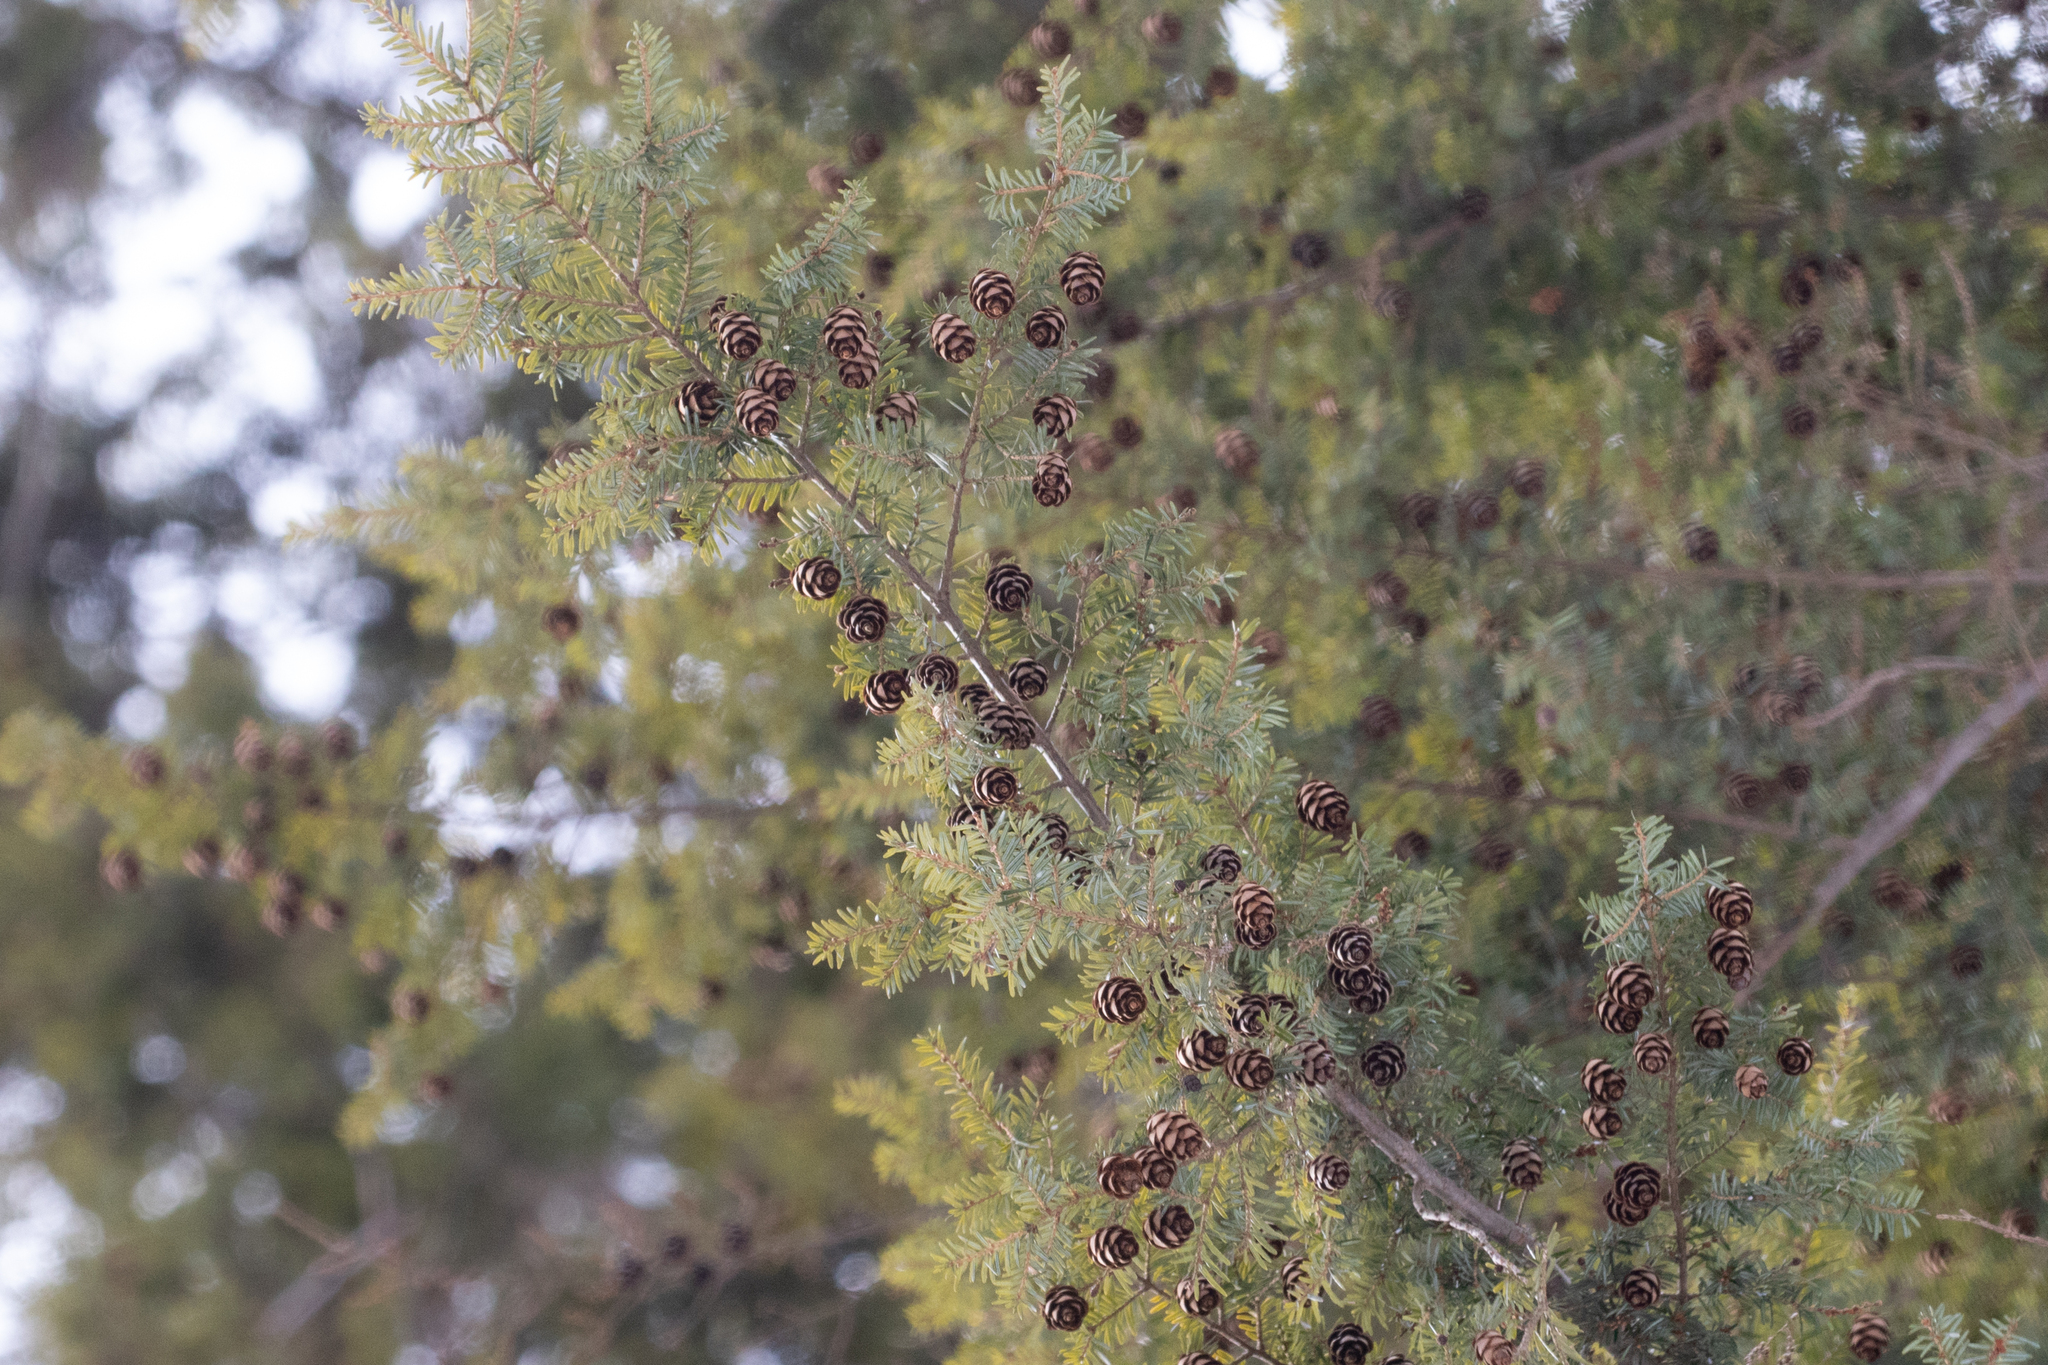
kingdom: Plantae
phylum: Tracheophyta
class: Pinopsida
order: Pinales
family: Pinaceae
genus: Tsuga
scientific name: Tsuga canadensis
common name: Eastern hemlock
